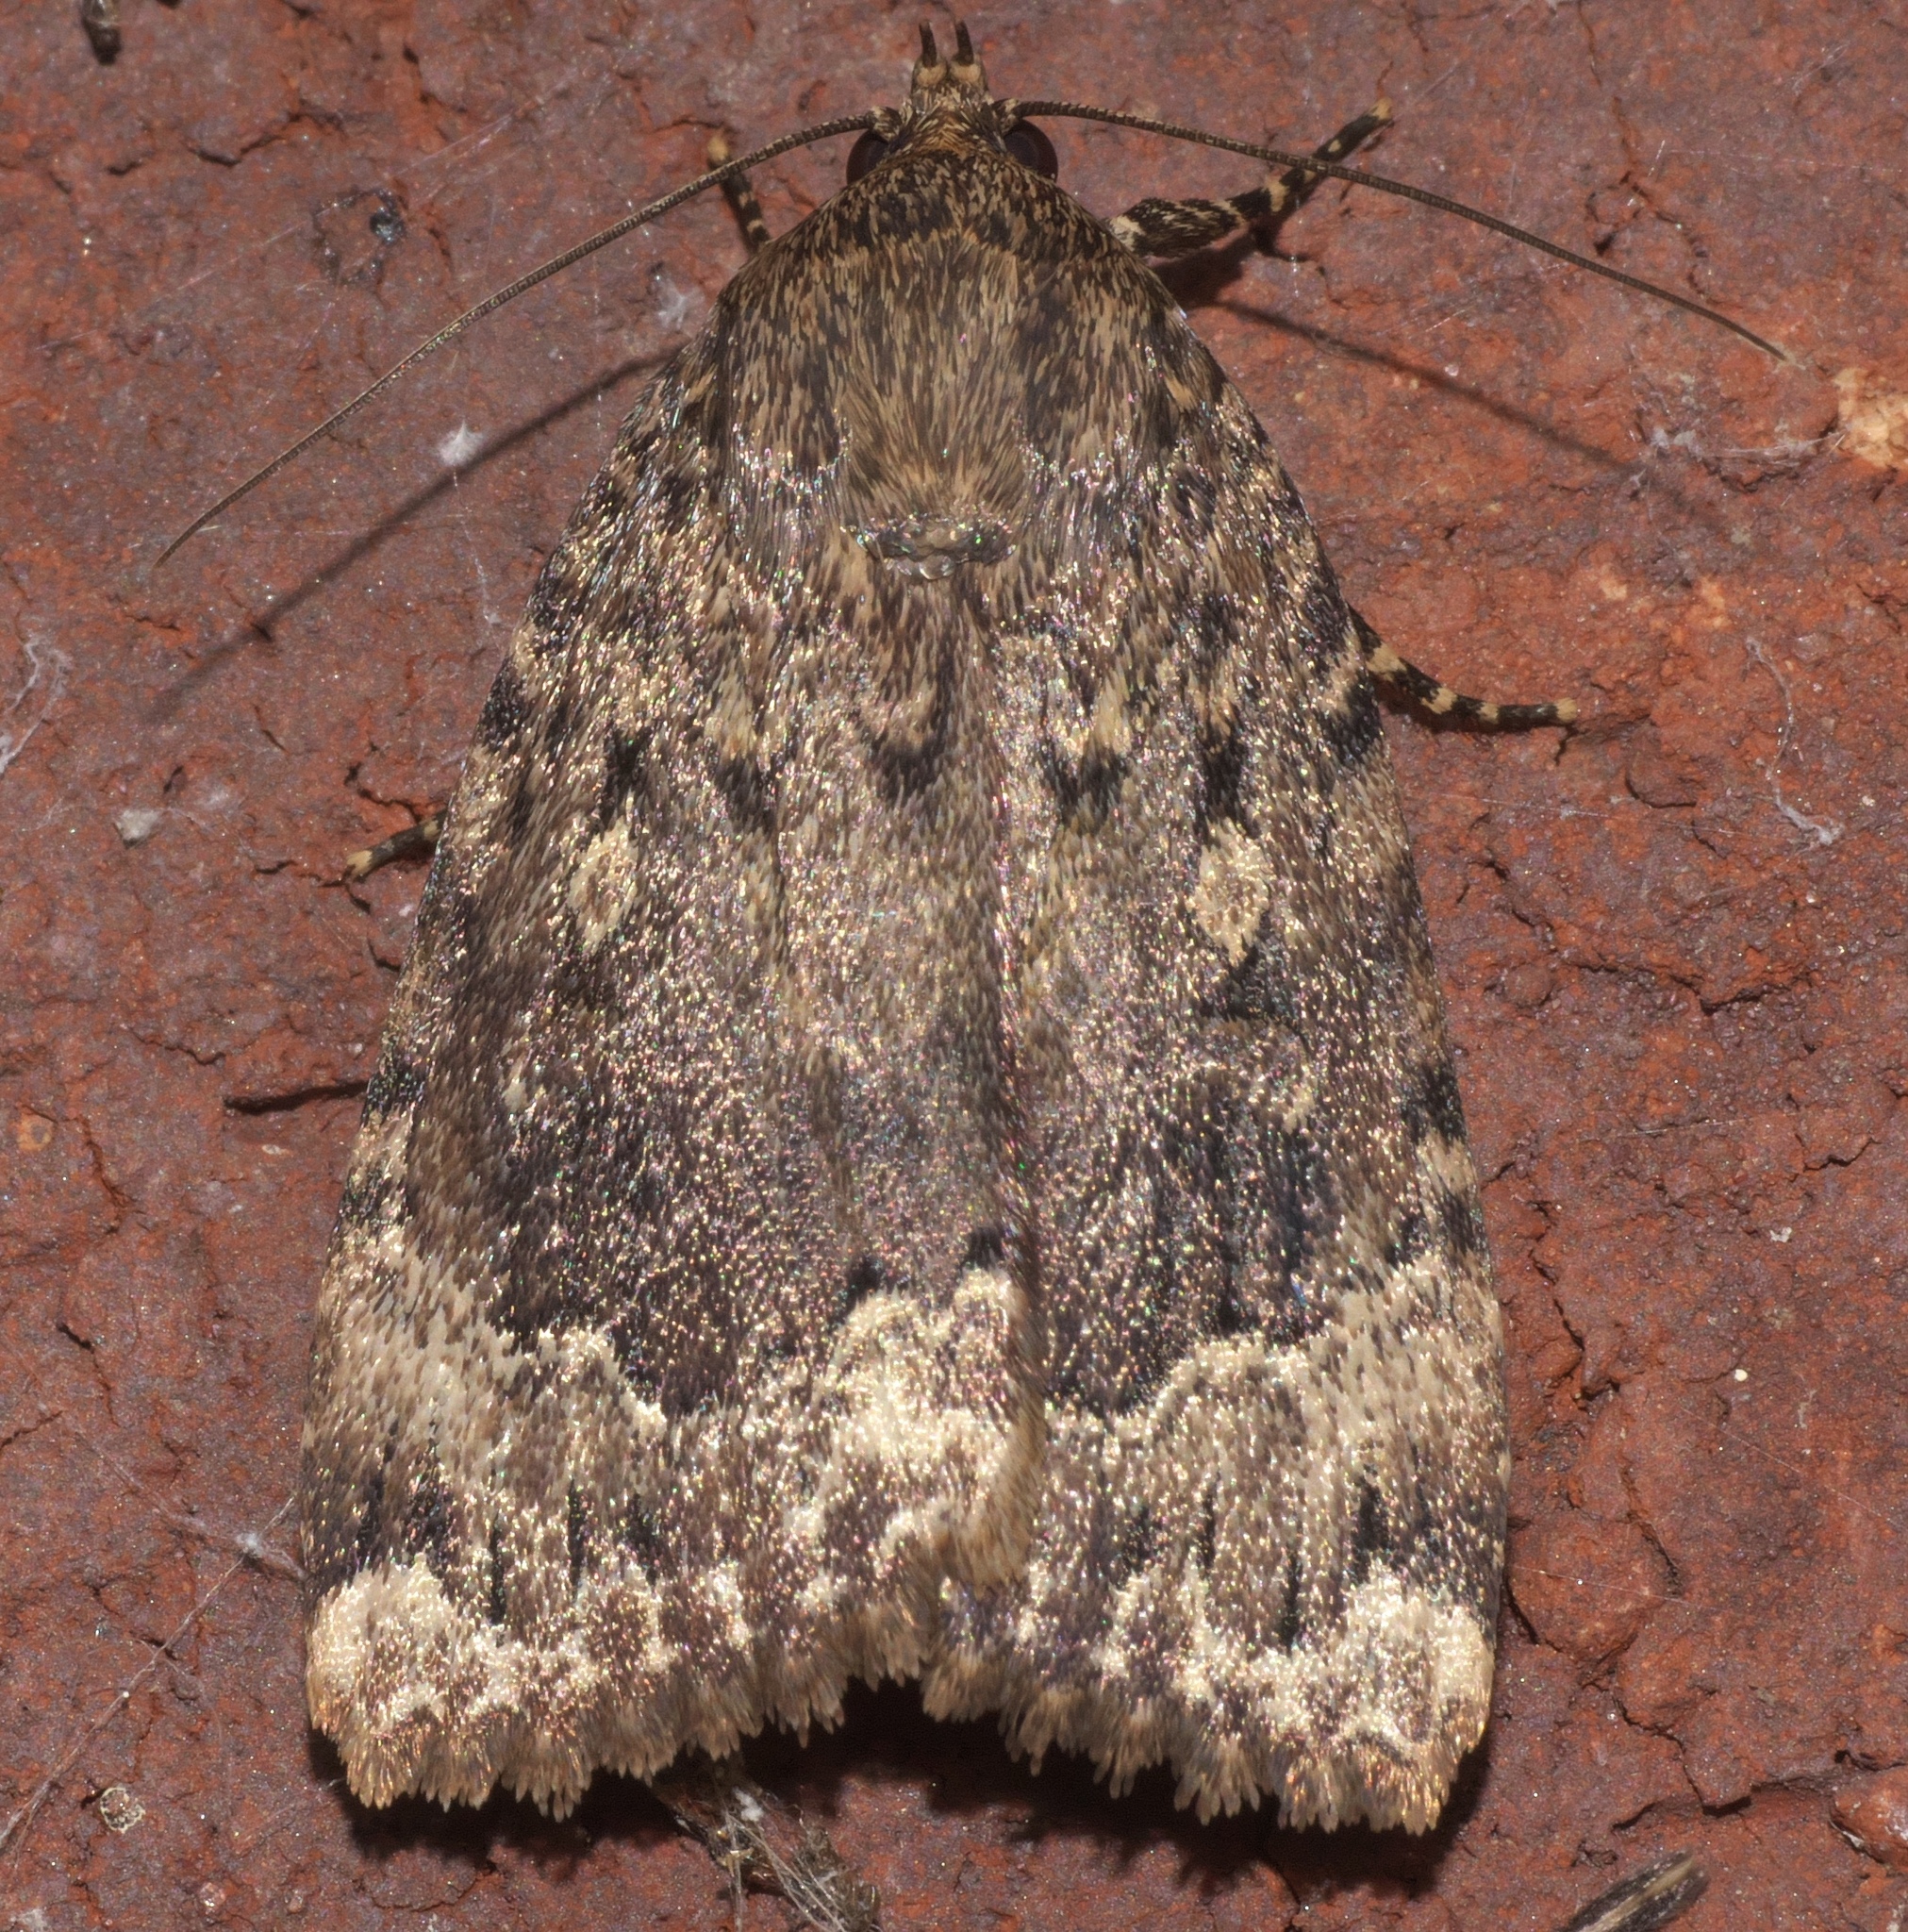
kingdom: Animalia
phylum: Arthropoda
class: Insecta
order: Lepidoptera
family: Noctuidae
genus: Amphipyra
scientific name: Amphipyra pyramidoides
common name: American copper underwing
